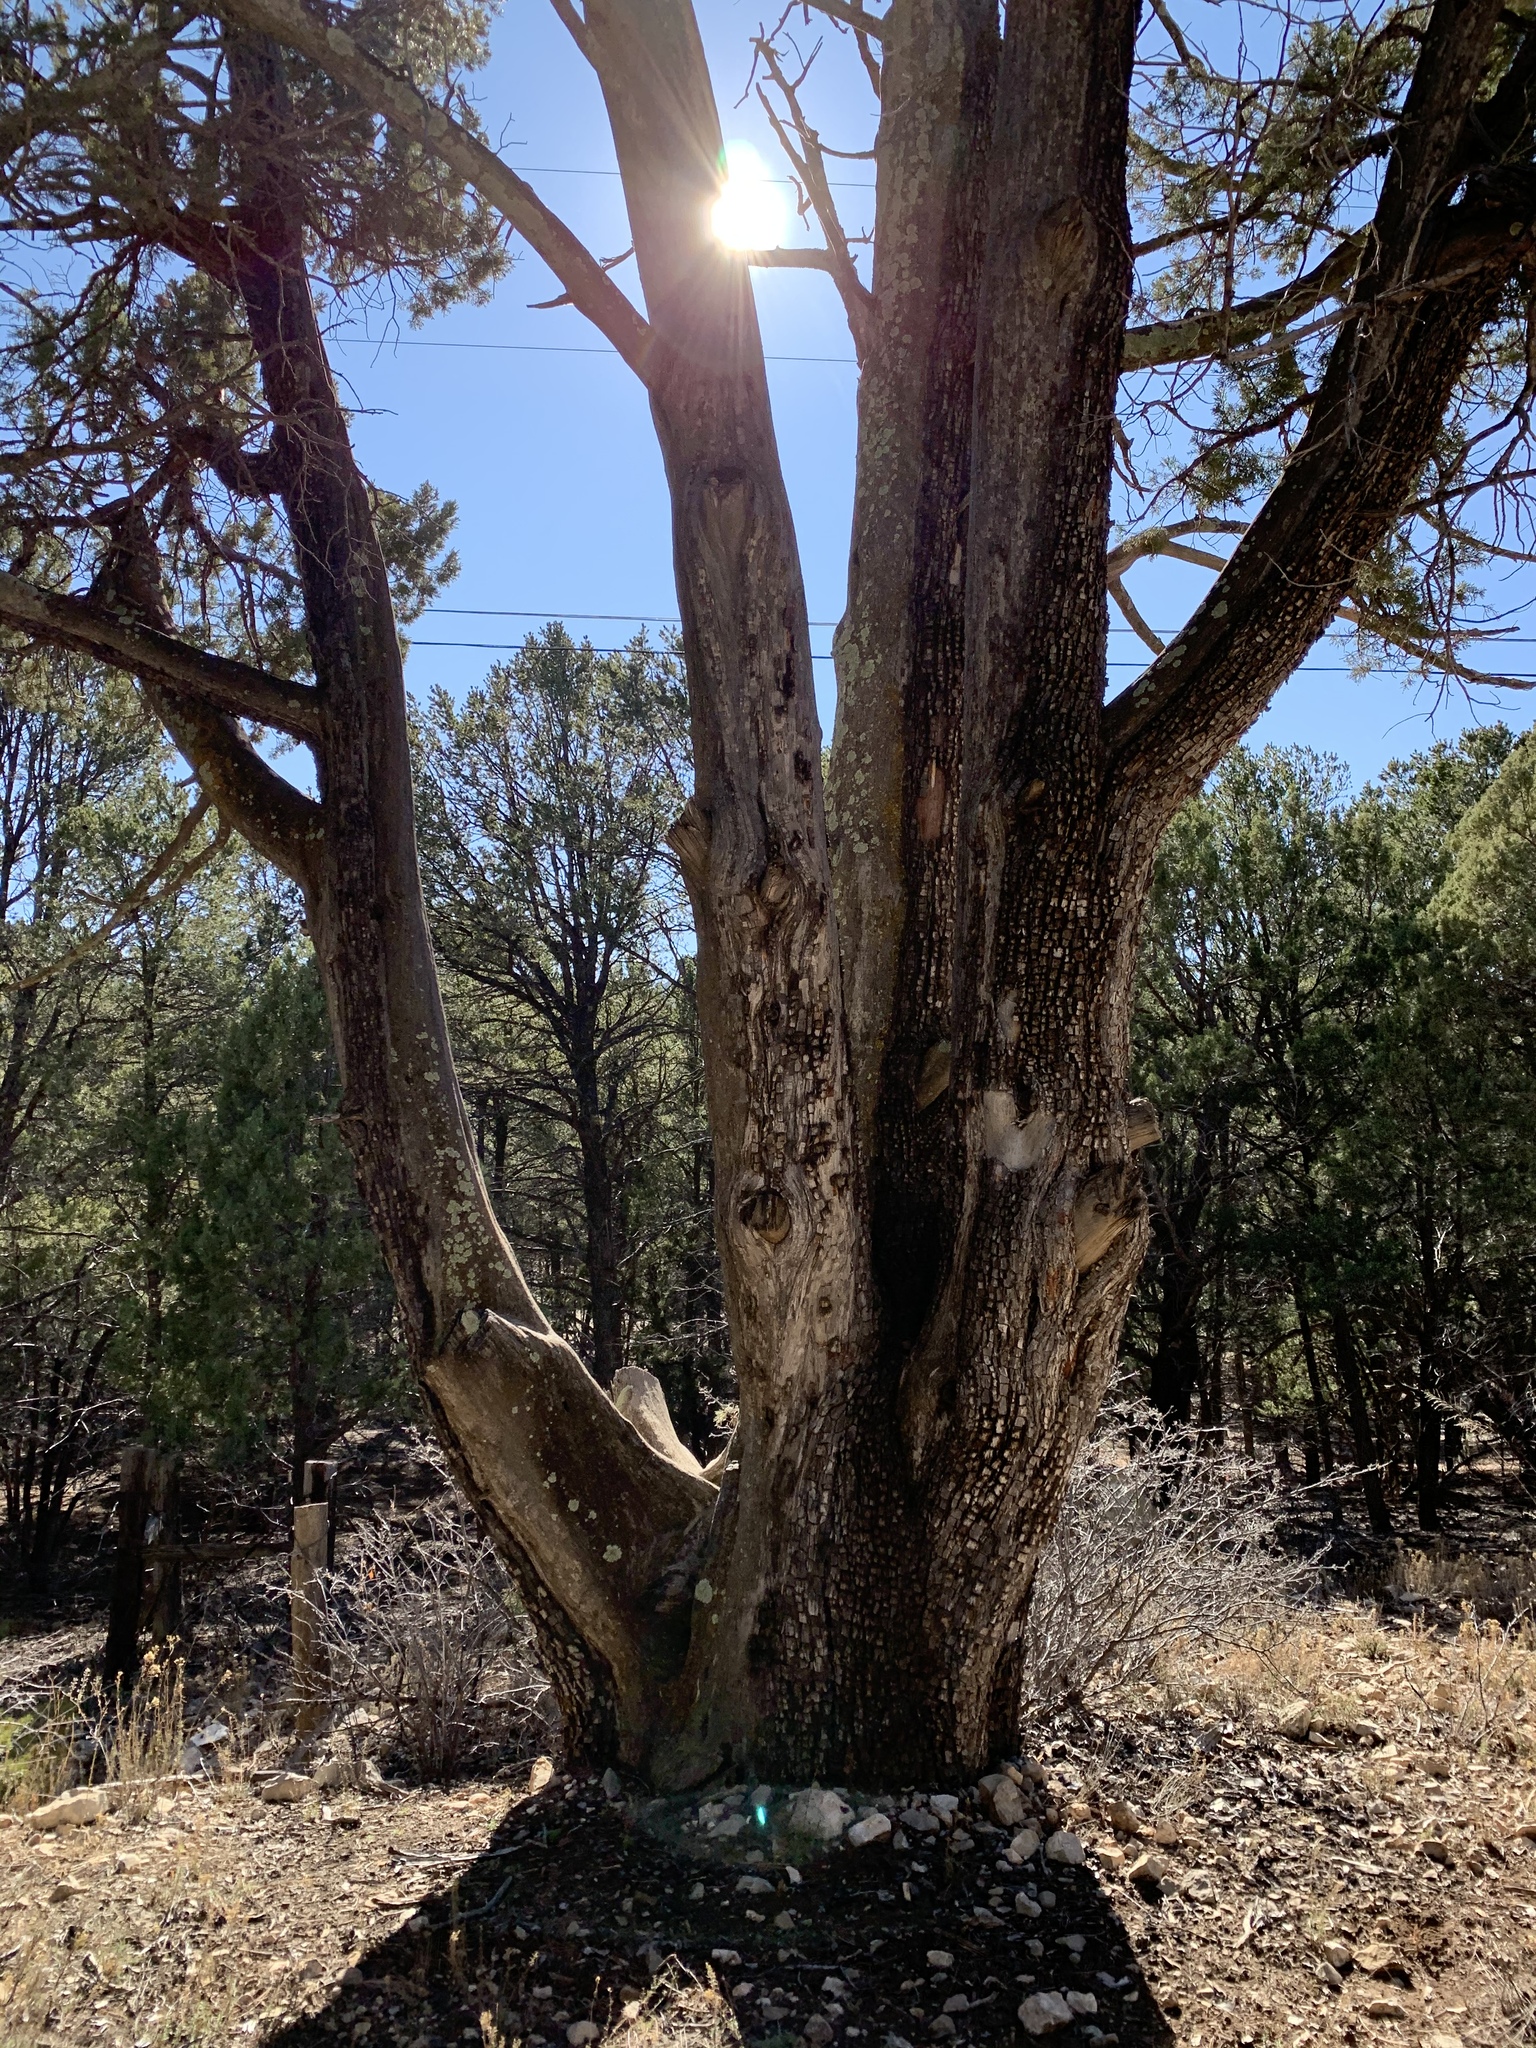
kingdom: Plantae
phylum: Tracheophyta
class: Pinopsida
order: Pinales
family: Cupressaceae
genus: Juniperus
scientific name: Juniperus deppeana
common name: Alligator juniper
